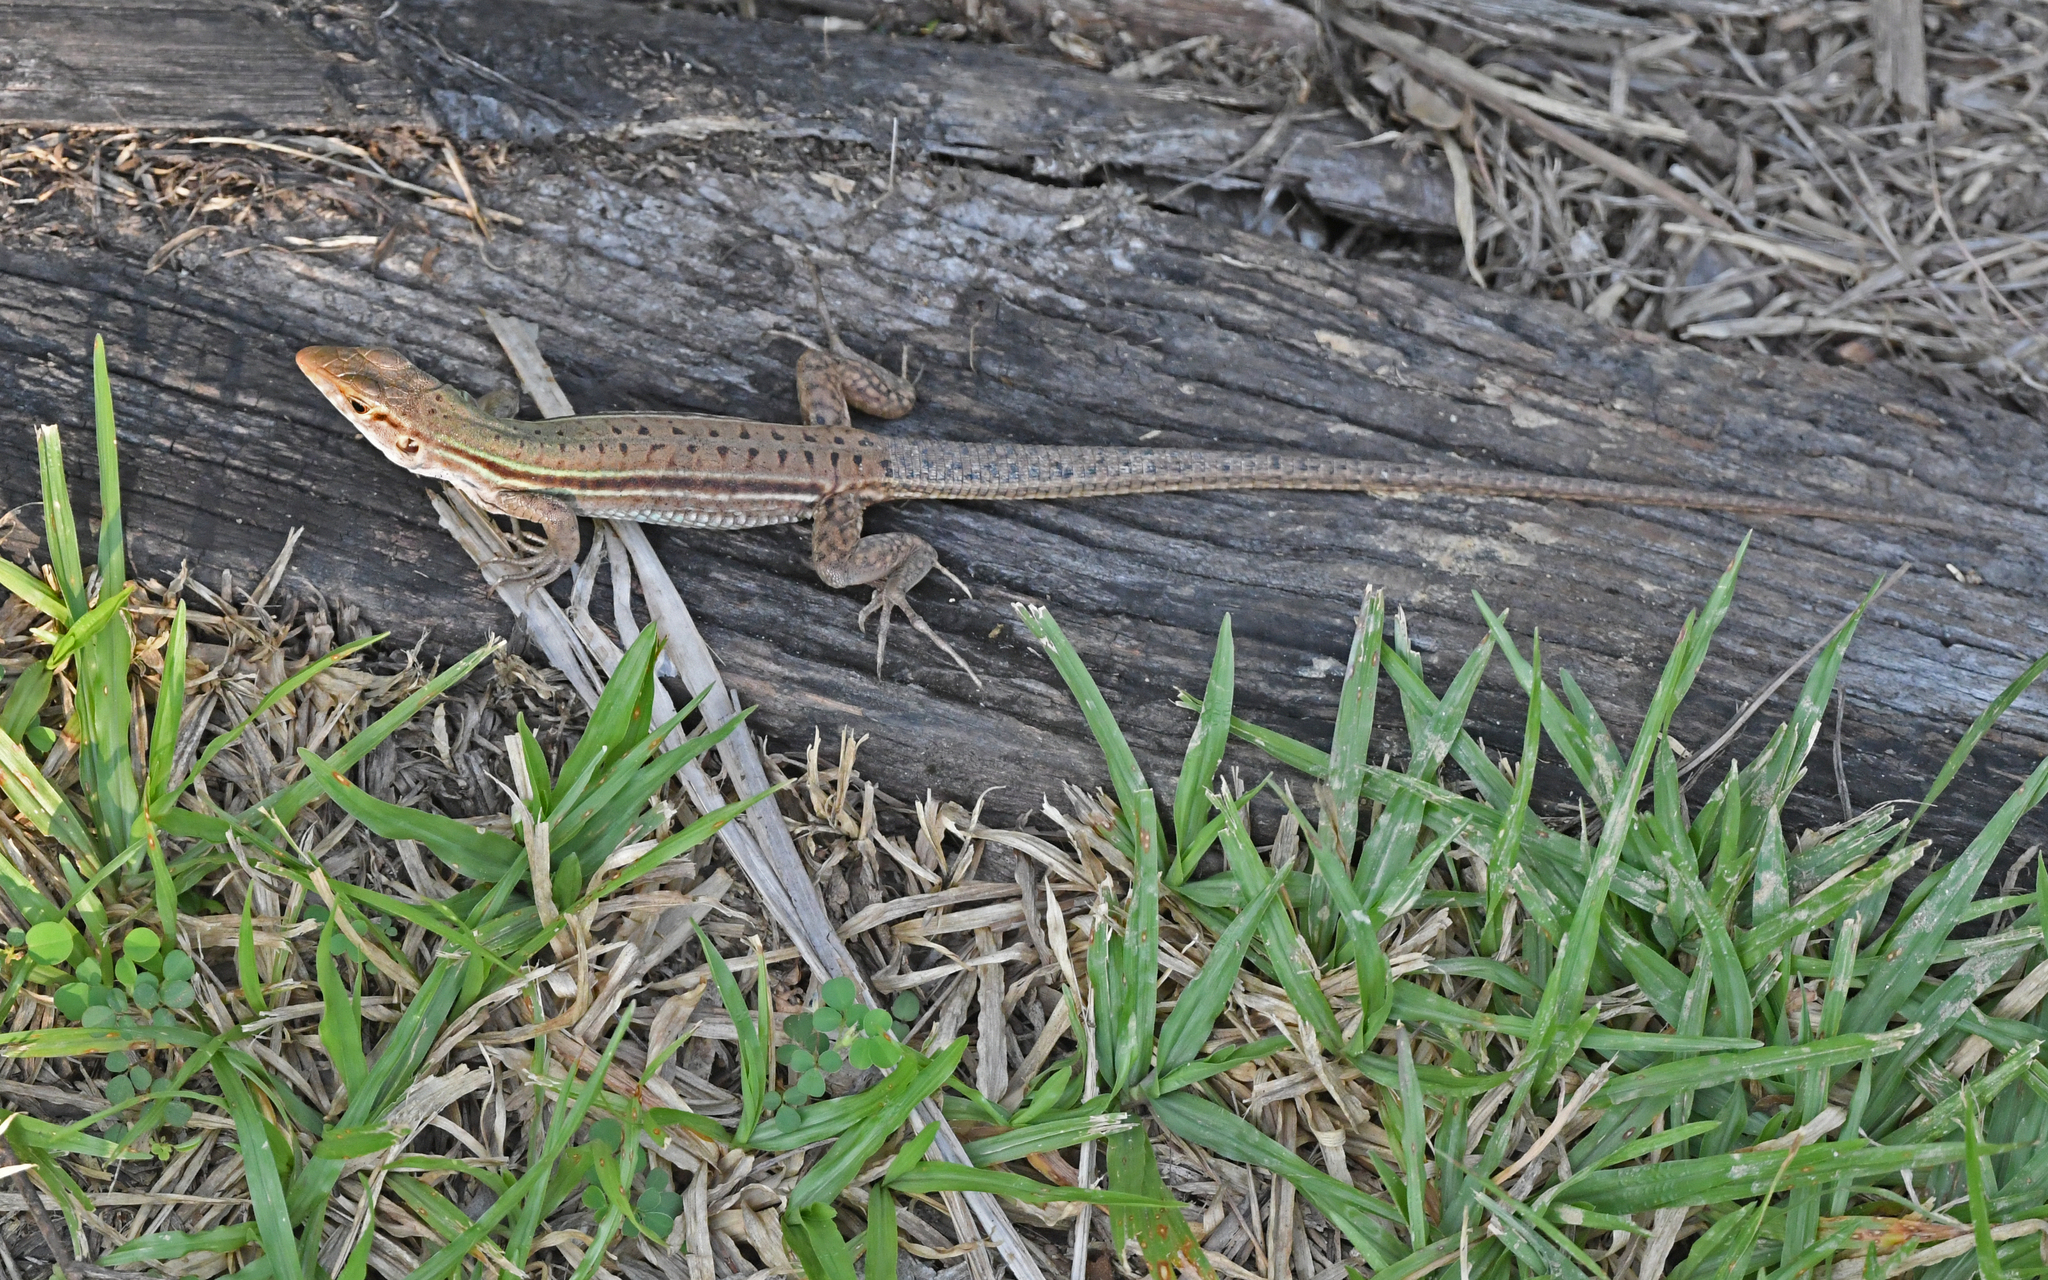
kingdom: Animalia
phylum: Chordata
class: Squamata
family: Teiidae
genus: Ameiva
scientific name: Ameiva bifrontata
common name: Cope's ameiva
